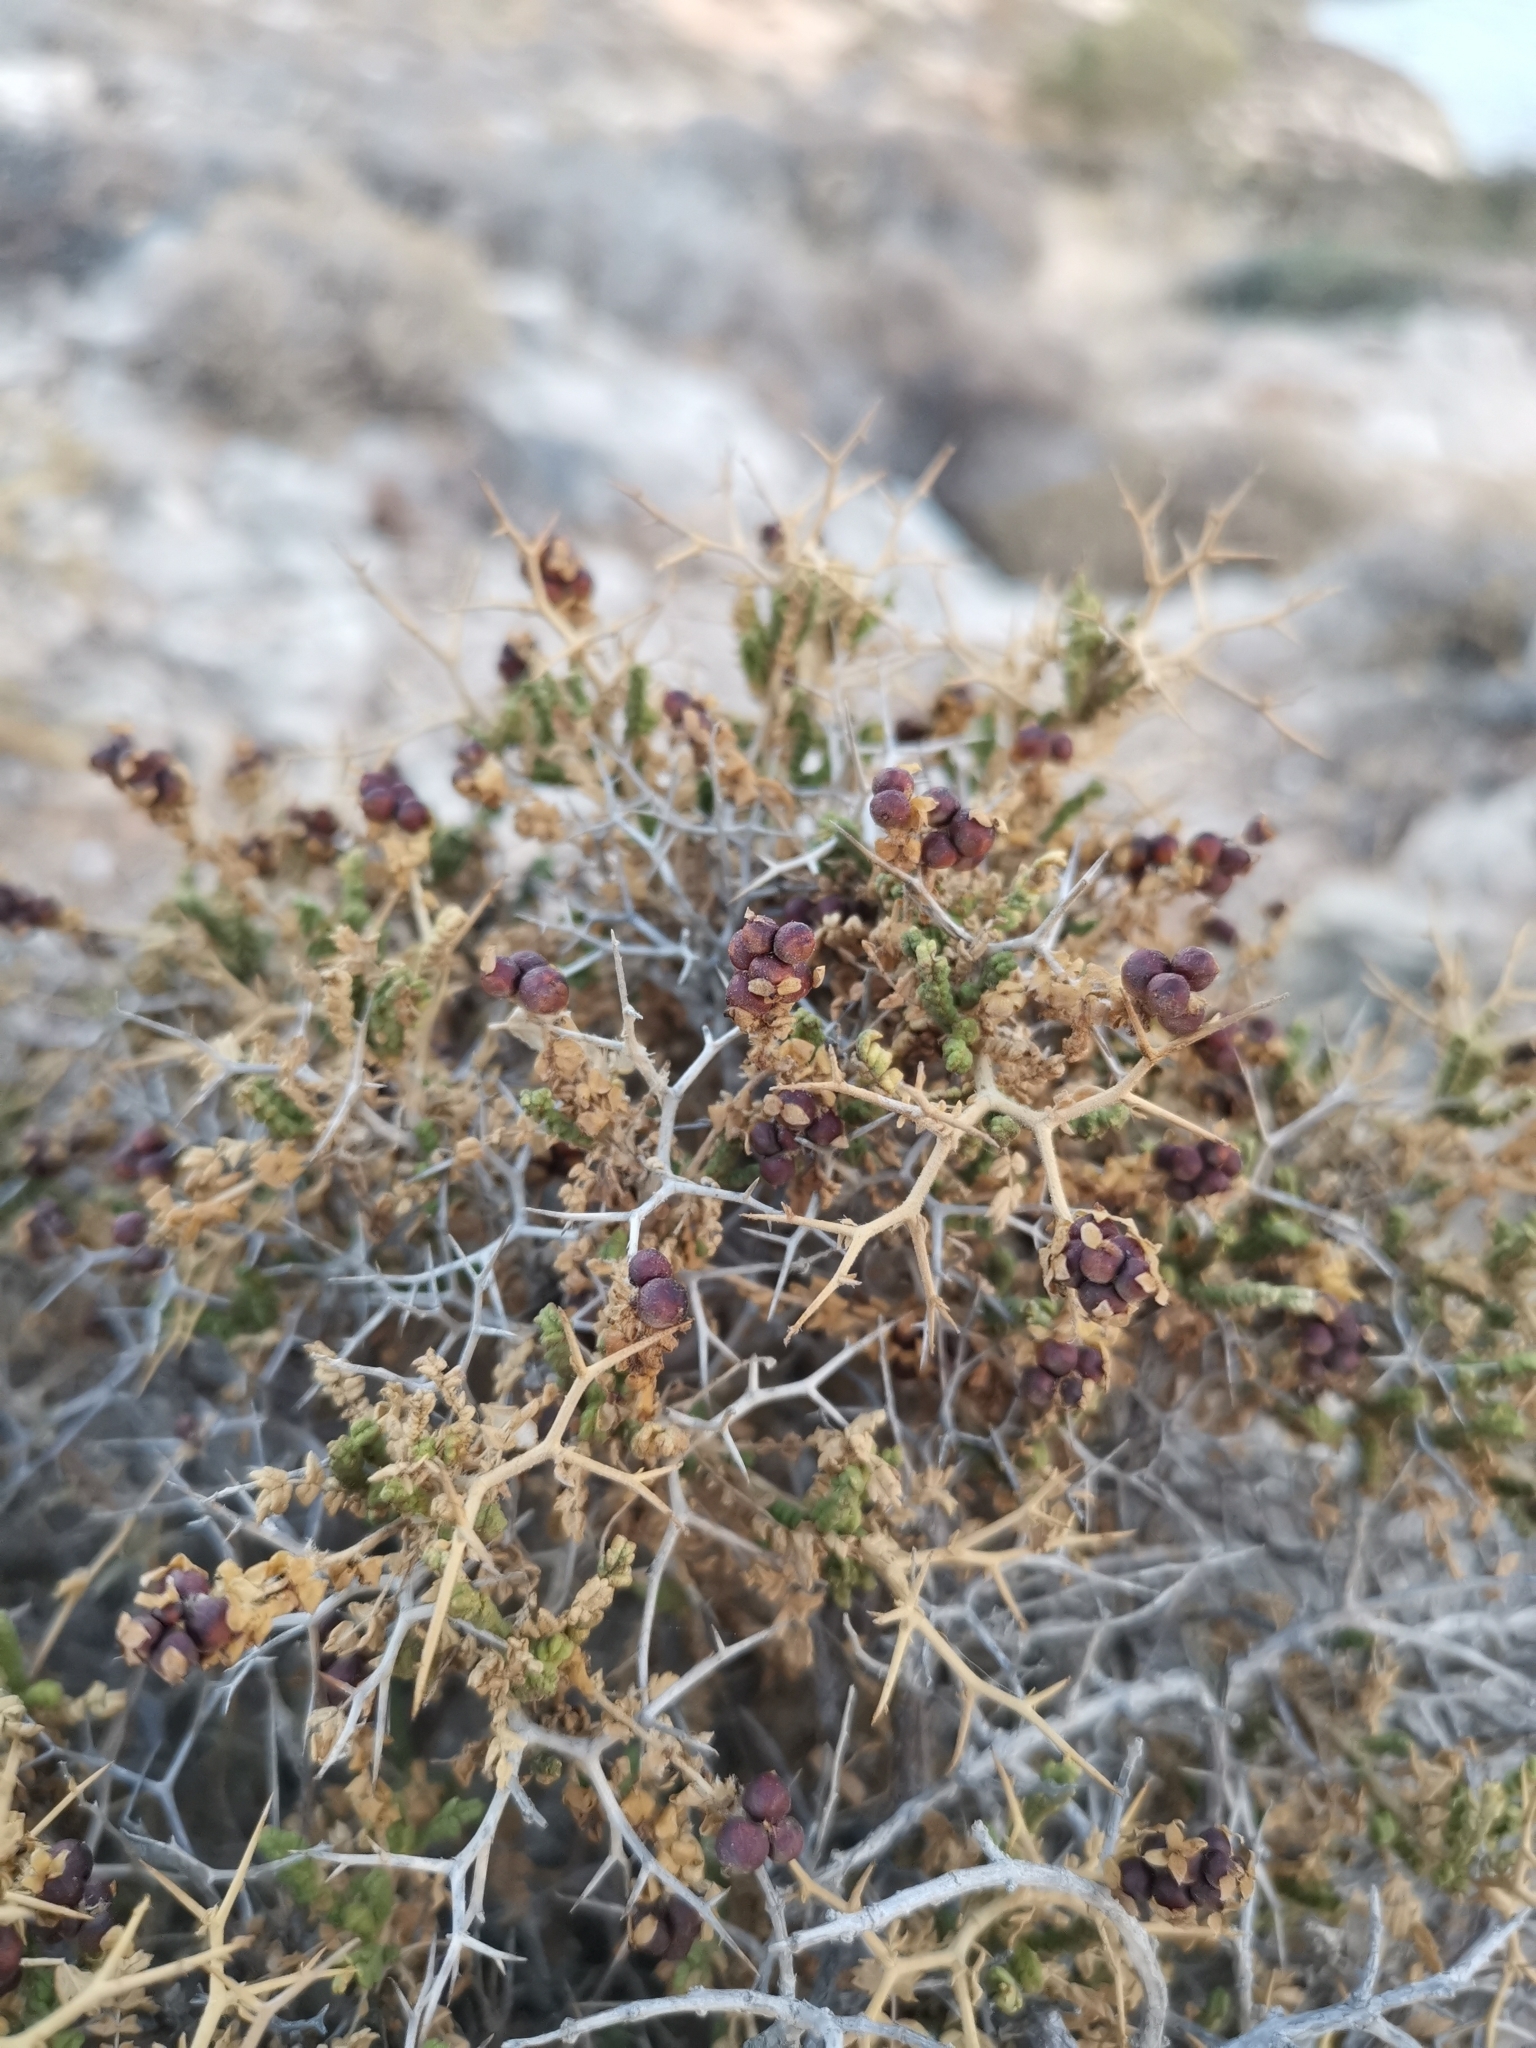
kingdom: Plantae
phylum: Tracheophyta
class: Magnoliopsida
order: Rosales
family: Rosaceae
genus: Sarcopoterium
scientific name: Sarcopoterium spinosum
